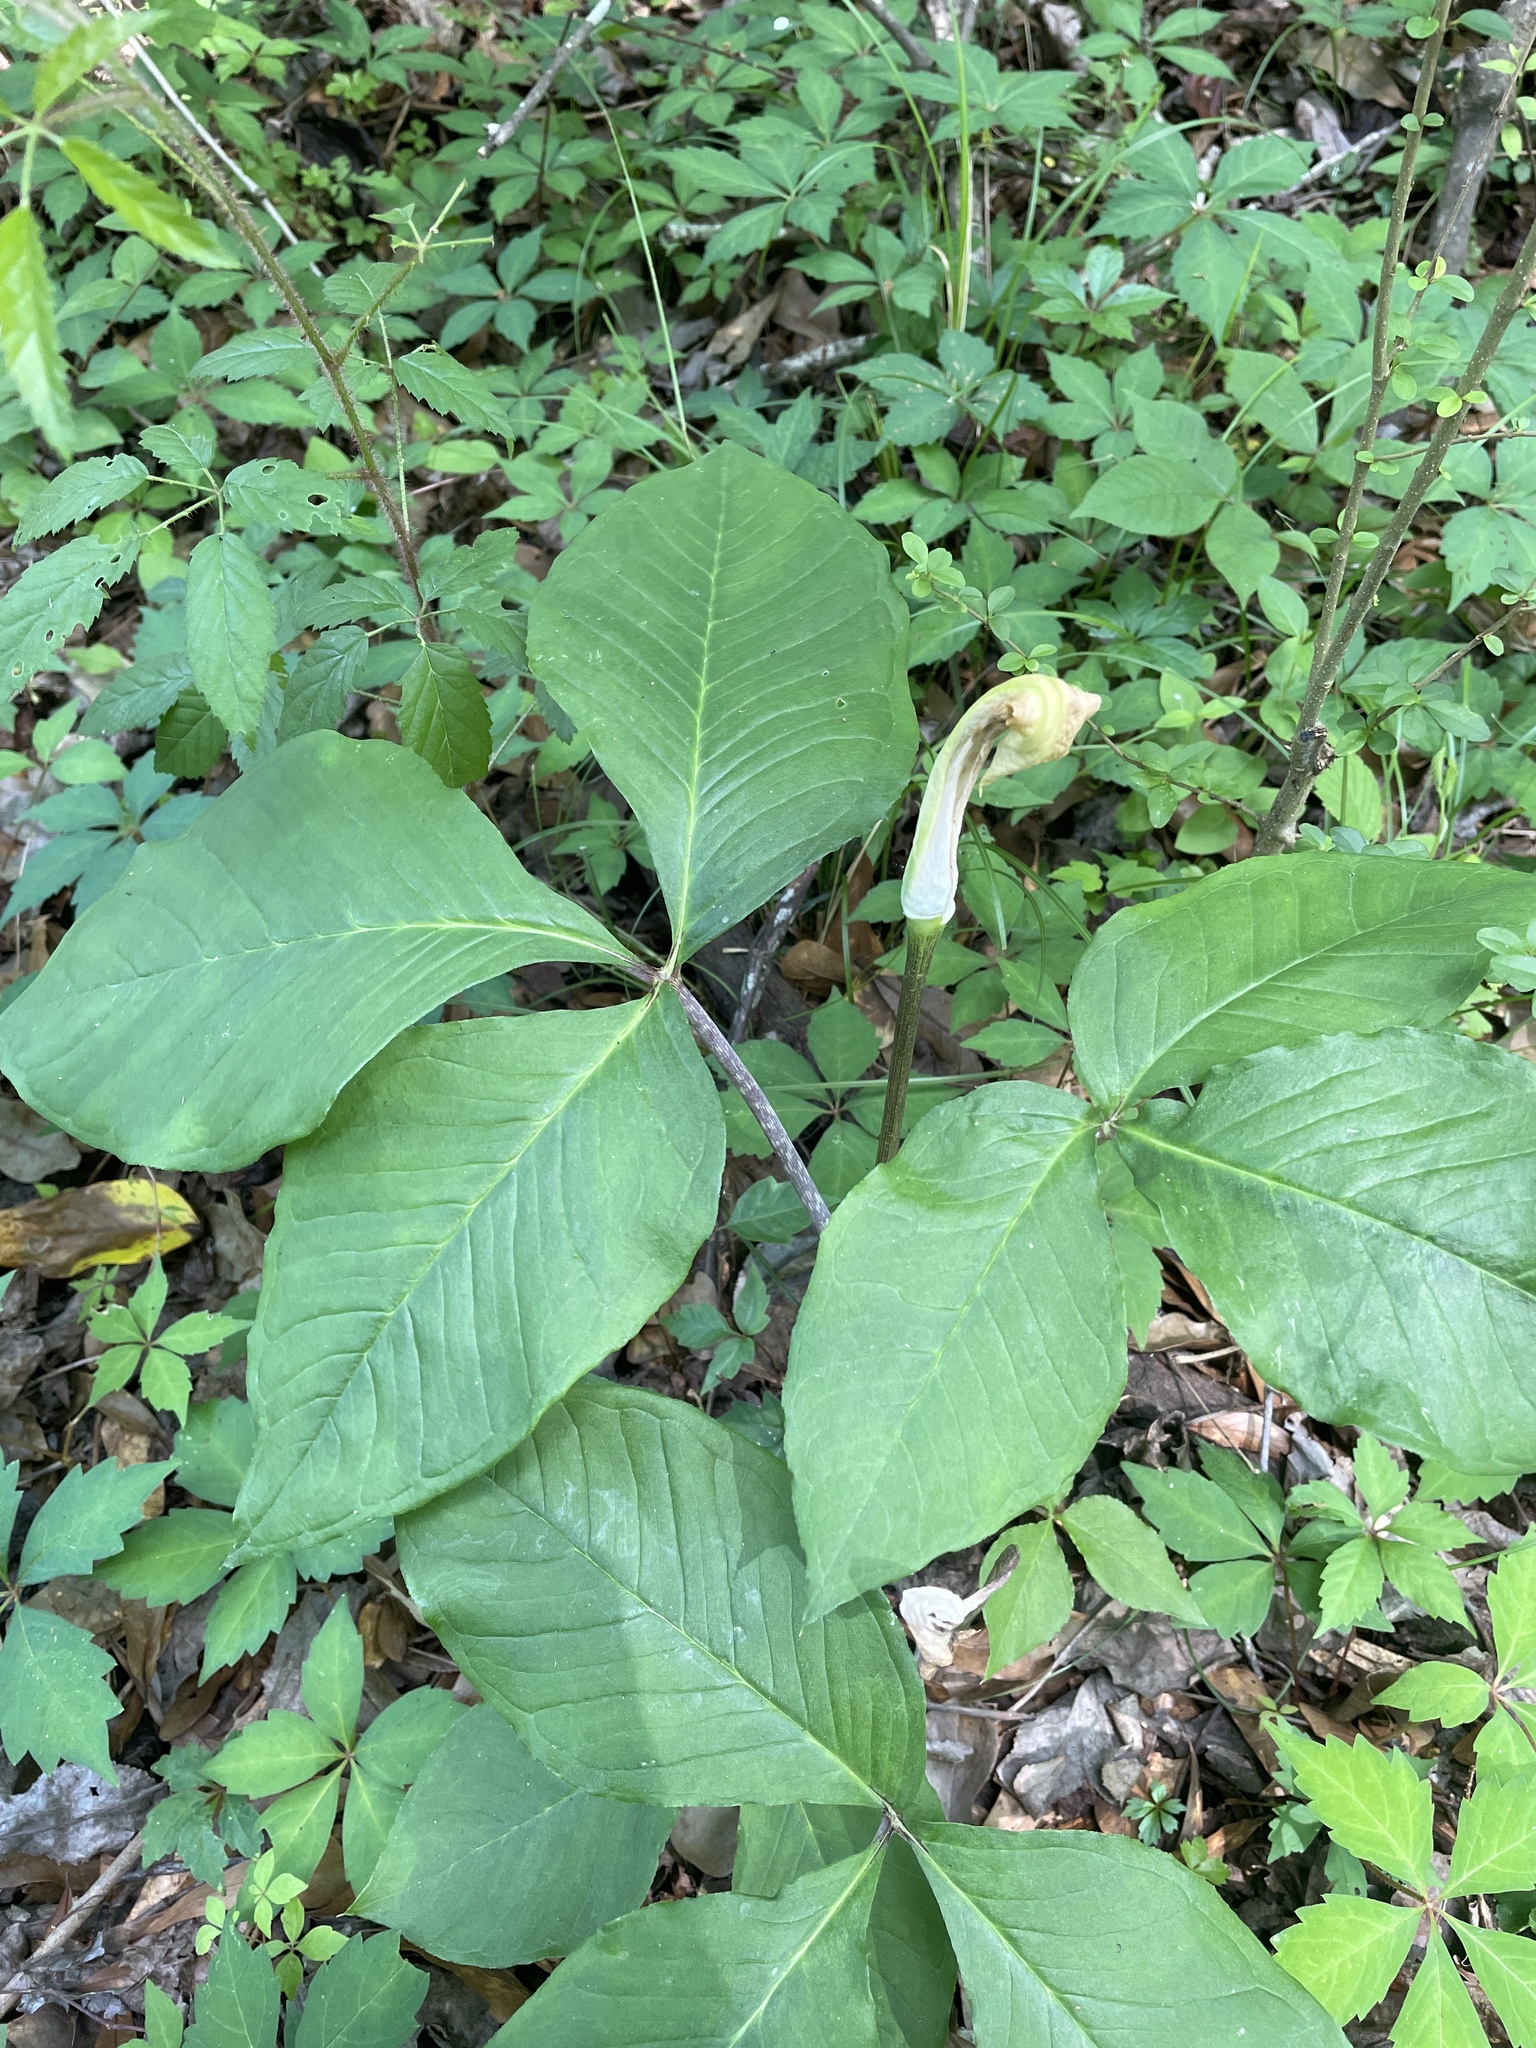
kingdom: Plantae
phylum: Tracheophyta
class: Liliopsida
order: Alismatales
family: Araceae
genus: Arisaema
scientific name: Arisaema triphyllum
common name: Jack-in-the-pulpit
